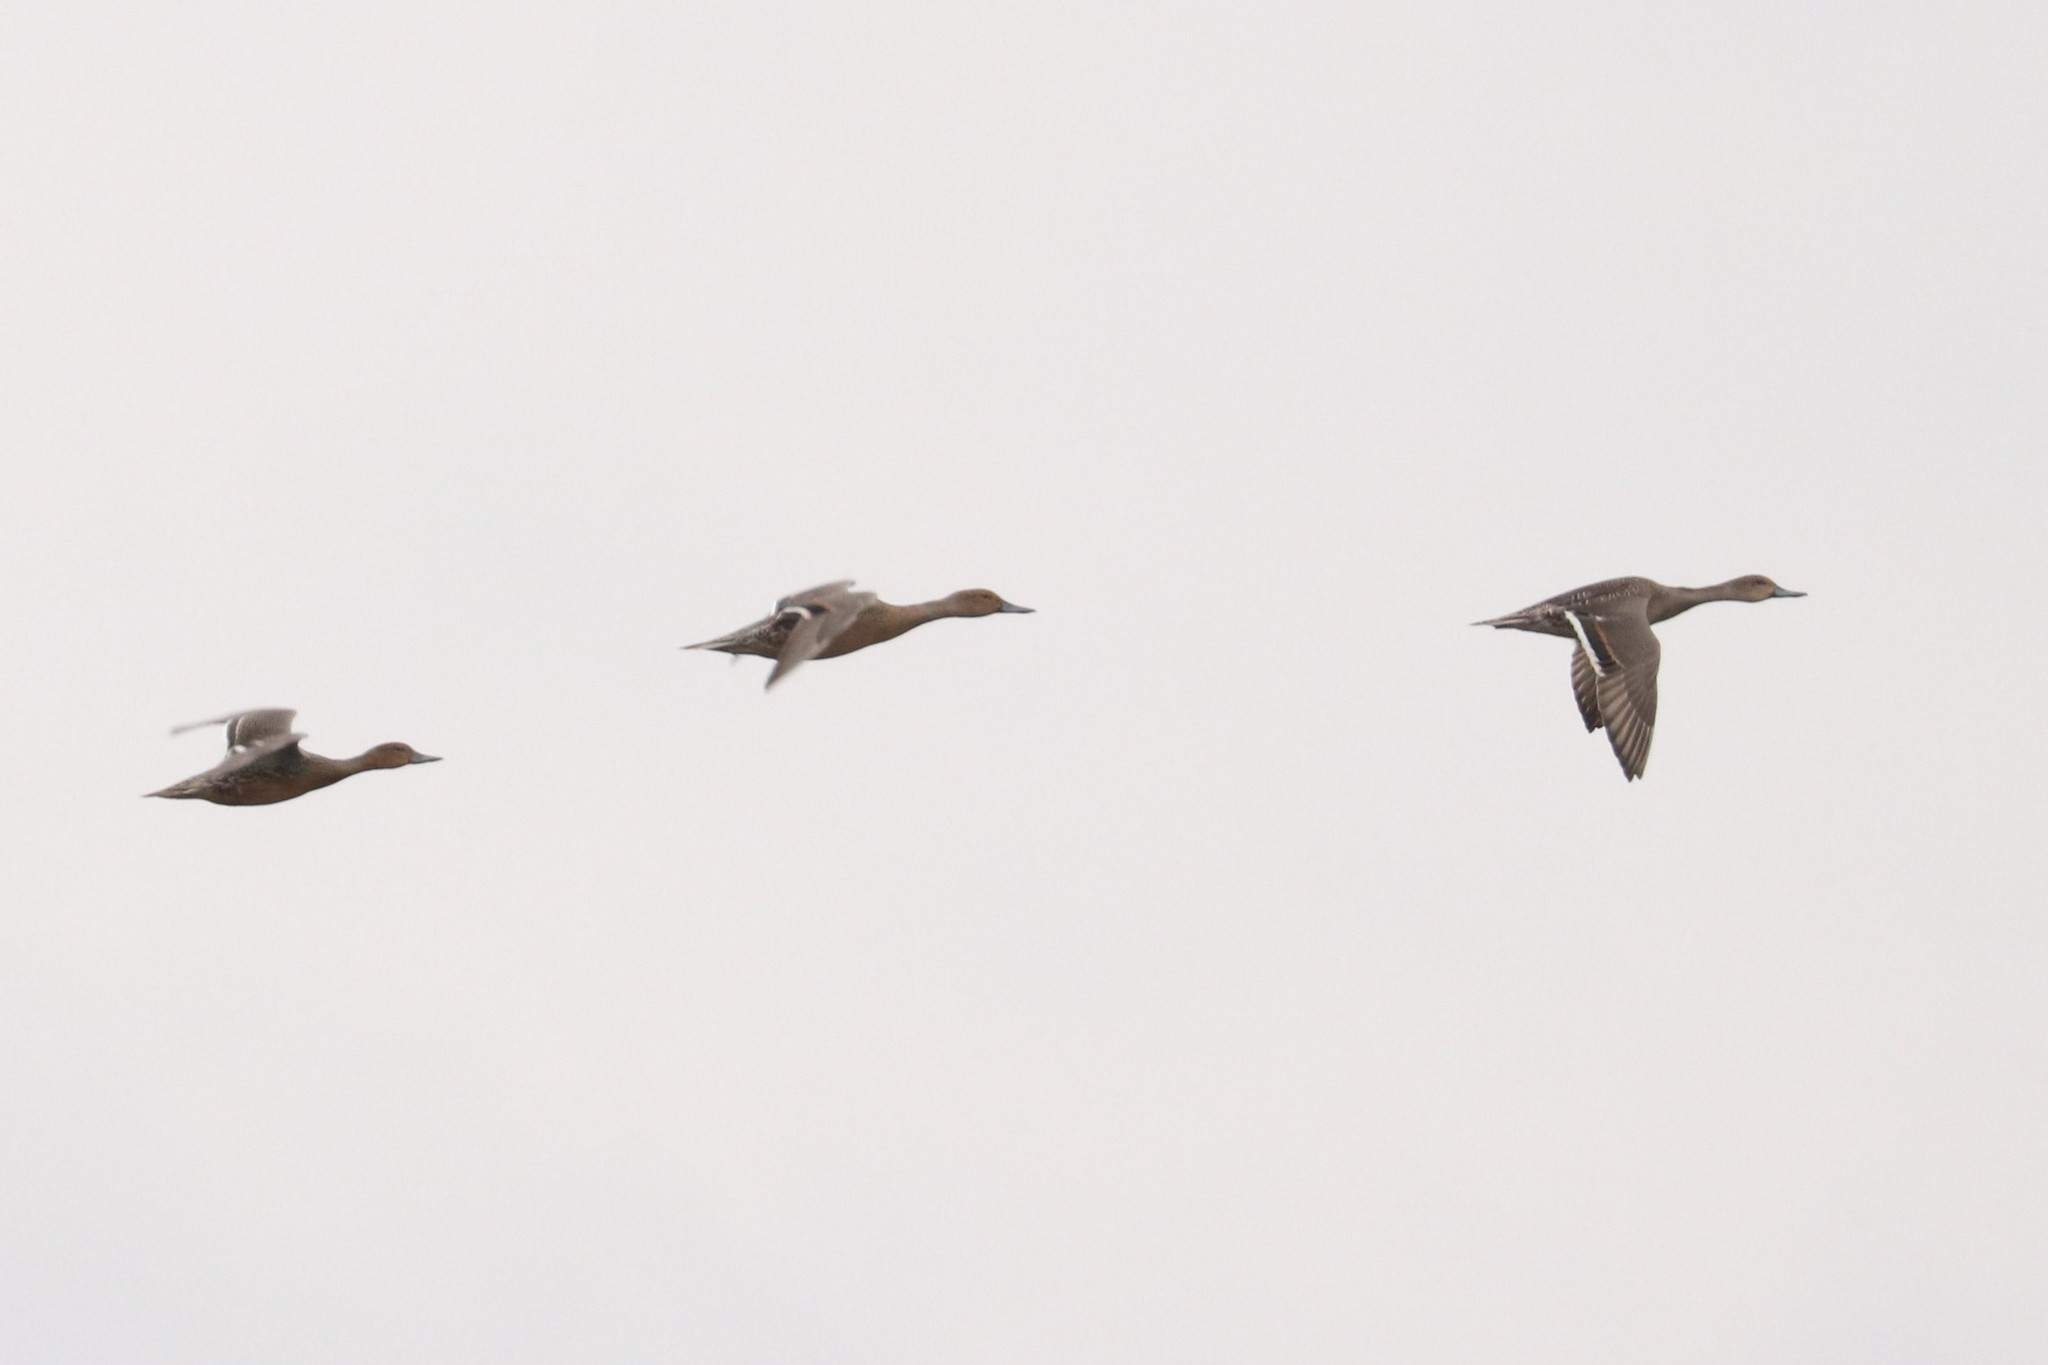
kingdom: Animalia
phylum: Chordata
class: Aves
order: Anseriformes
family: Anatidae
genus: Anas
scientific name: Anas acuta
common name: Northern pintail
